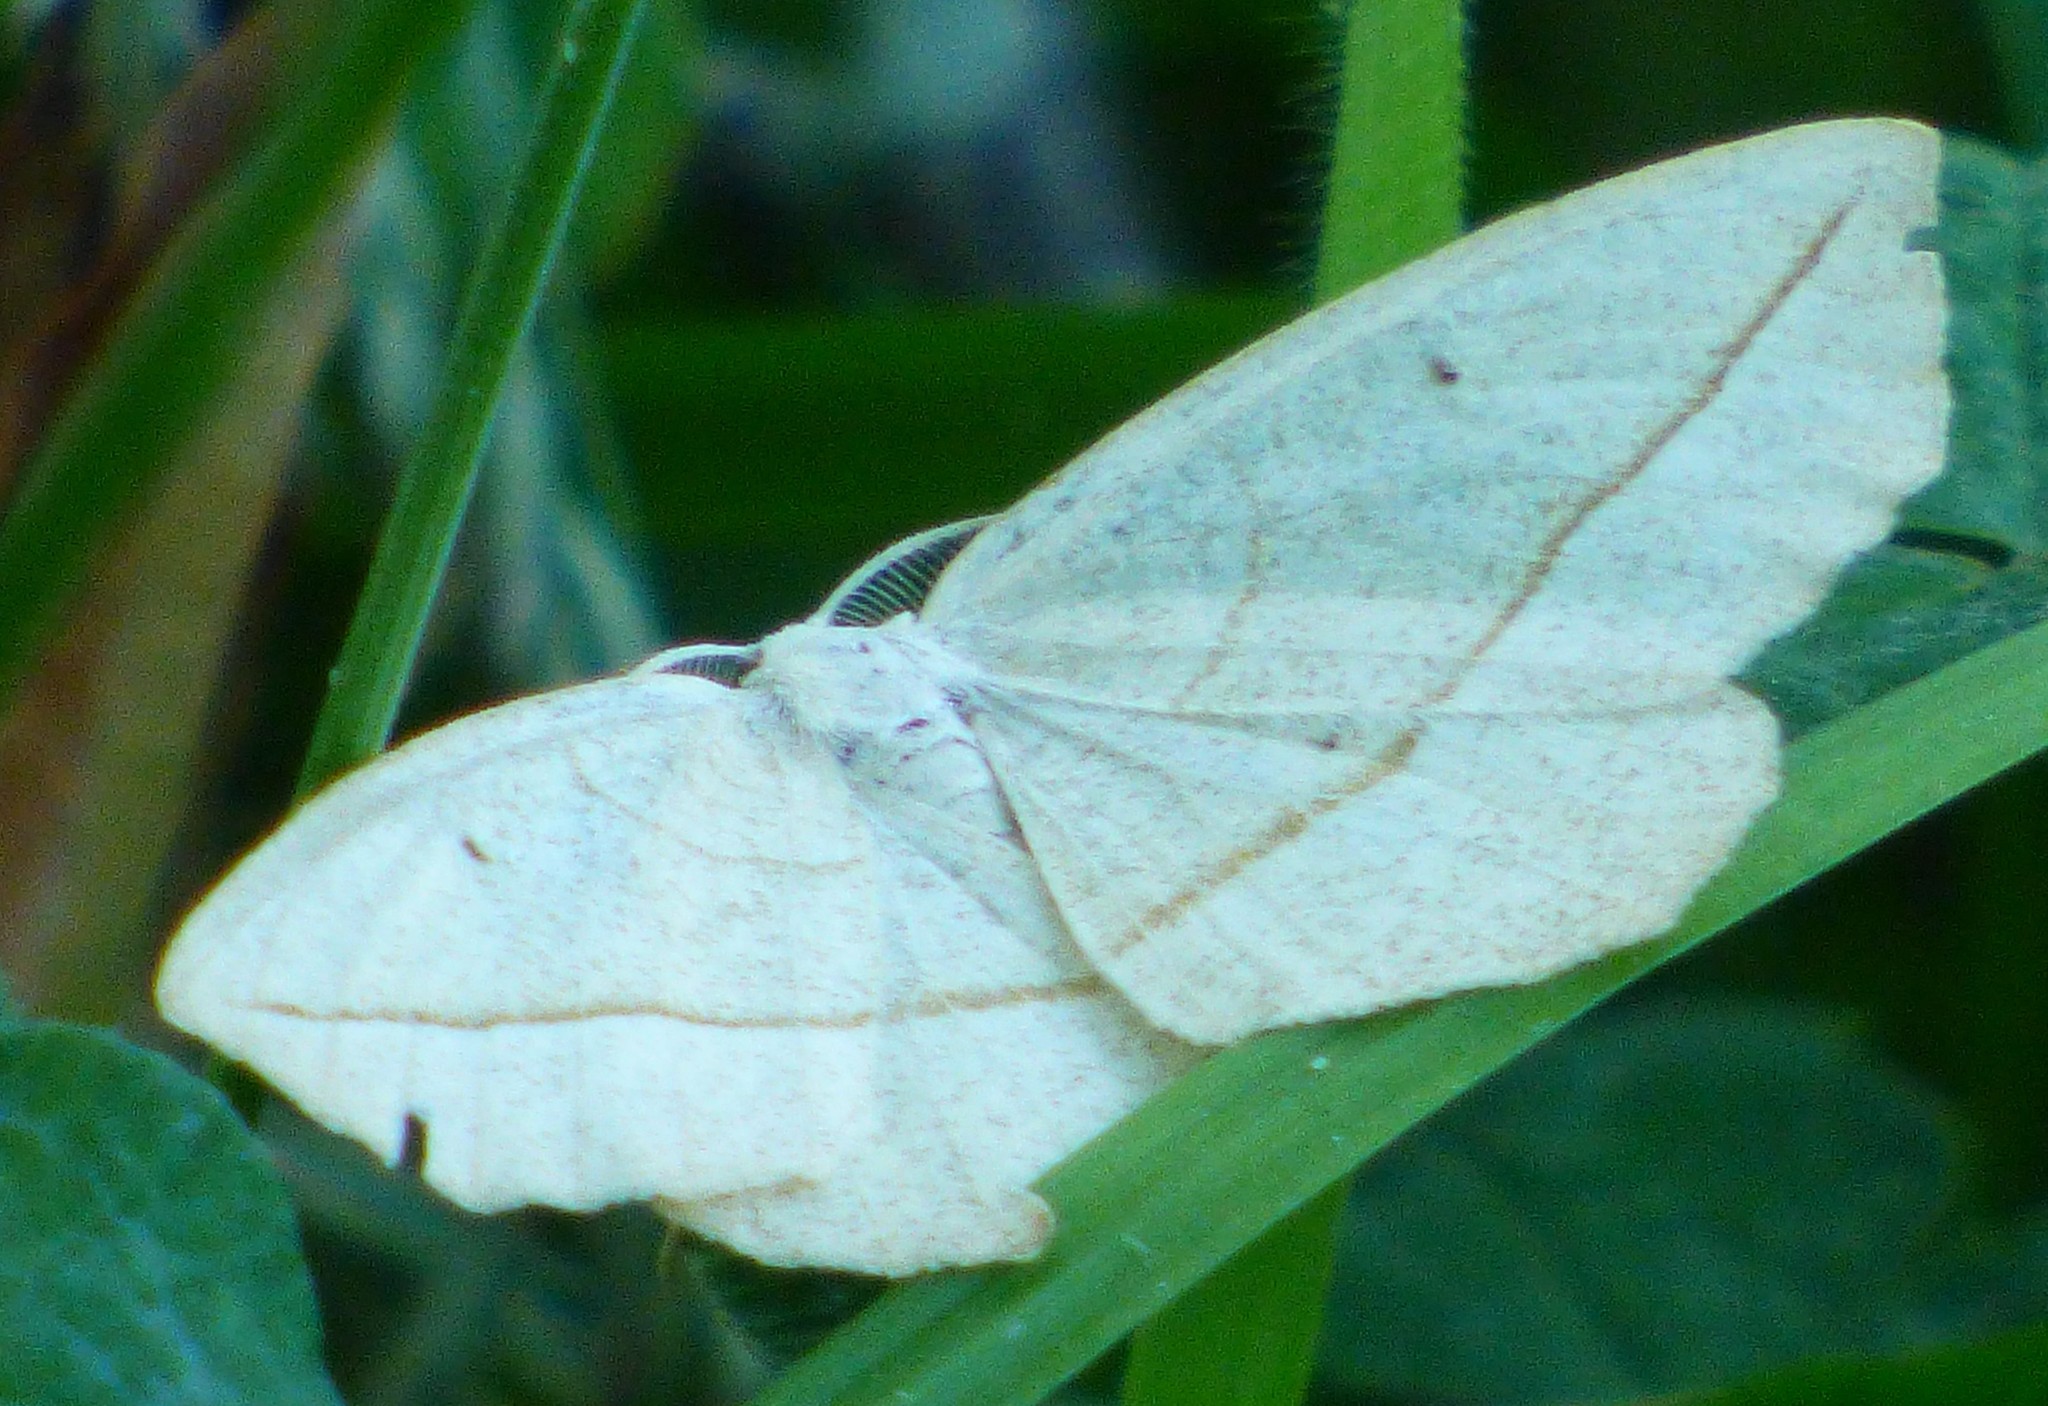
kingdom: Animalia
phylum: Arthropoda
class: Insecta
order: Lepidoptera
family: Geometridae
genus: Eusarca
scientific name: Eusarca confusaria
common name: Confused eusarca
